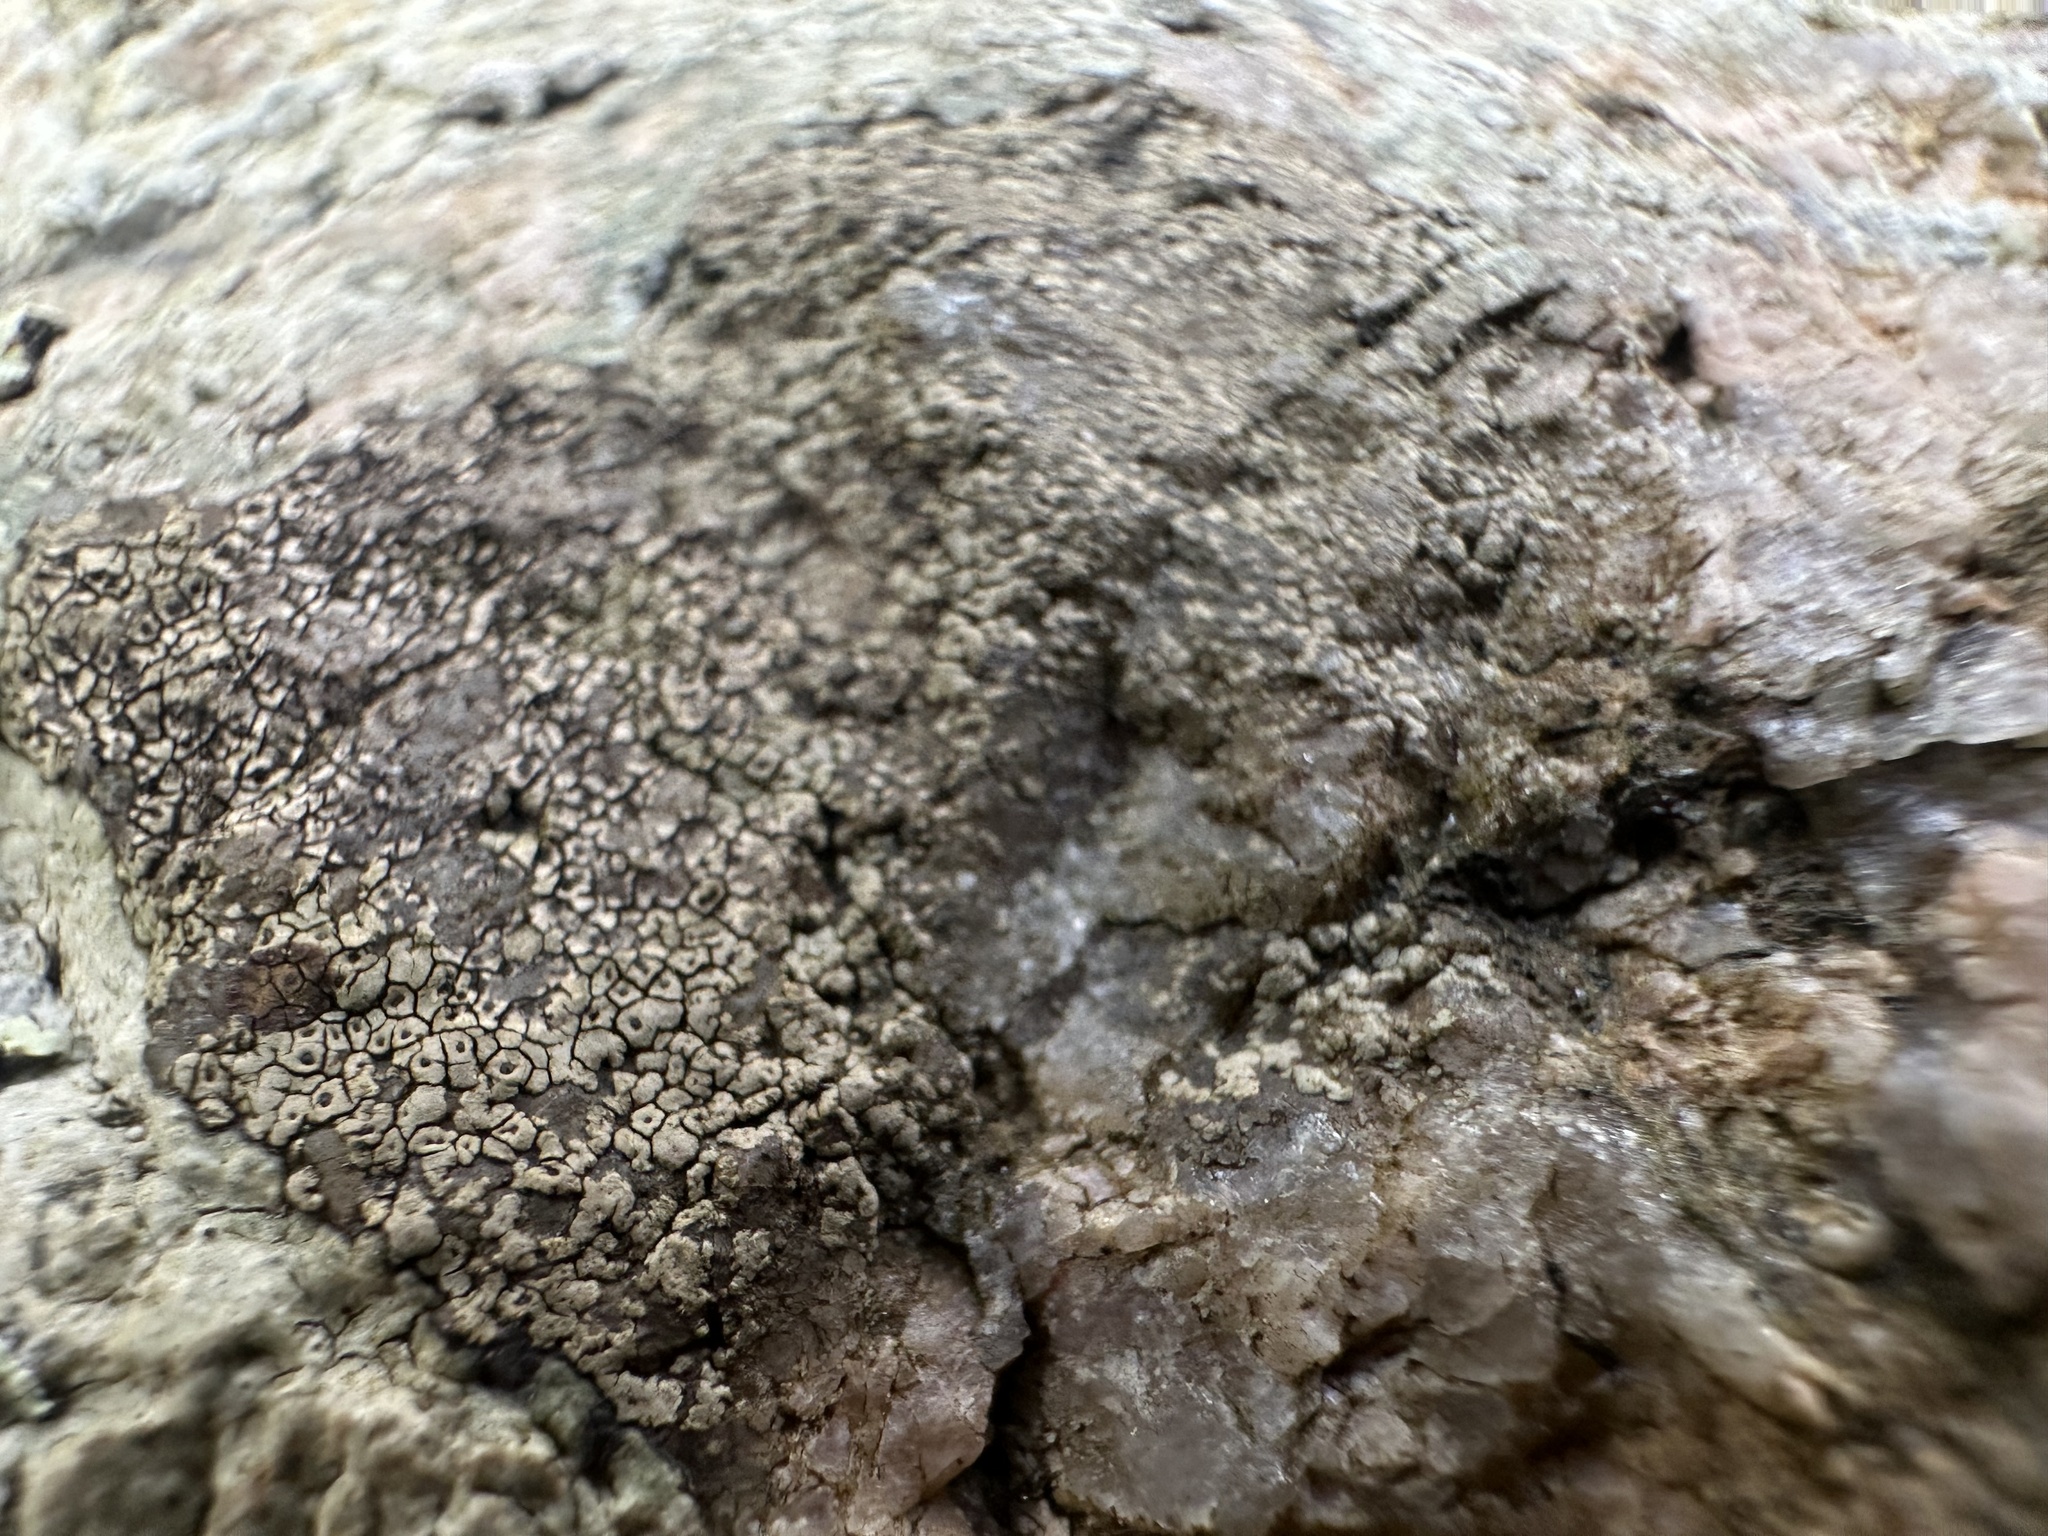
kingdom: Fungi
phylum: Ascomycota
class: Lecanoromycetes
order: Acarosporales
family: Acarosporaceae
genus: Acarospora
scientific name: Acarospora fuscata
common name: Brown cobblestone lichen
